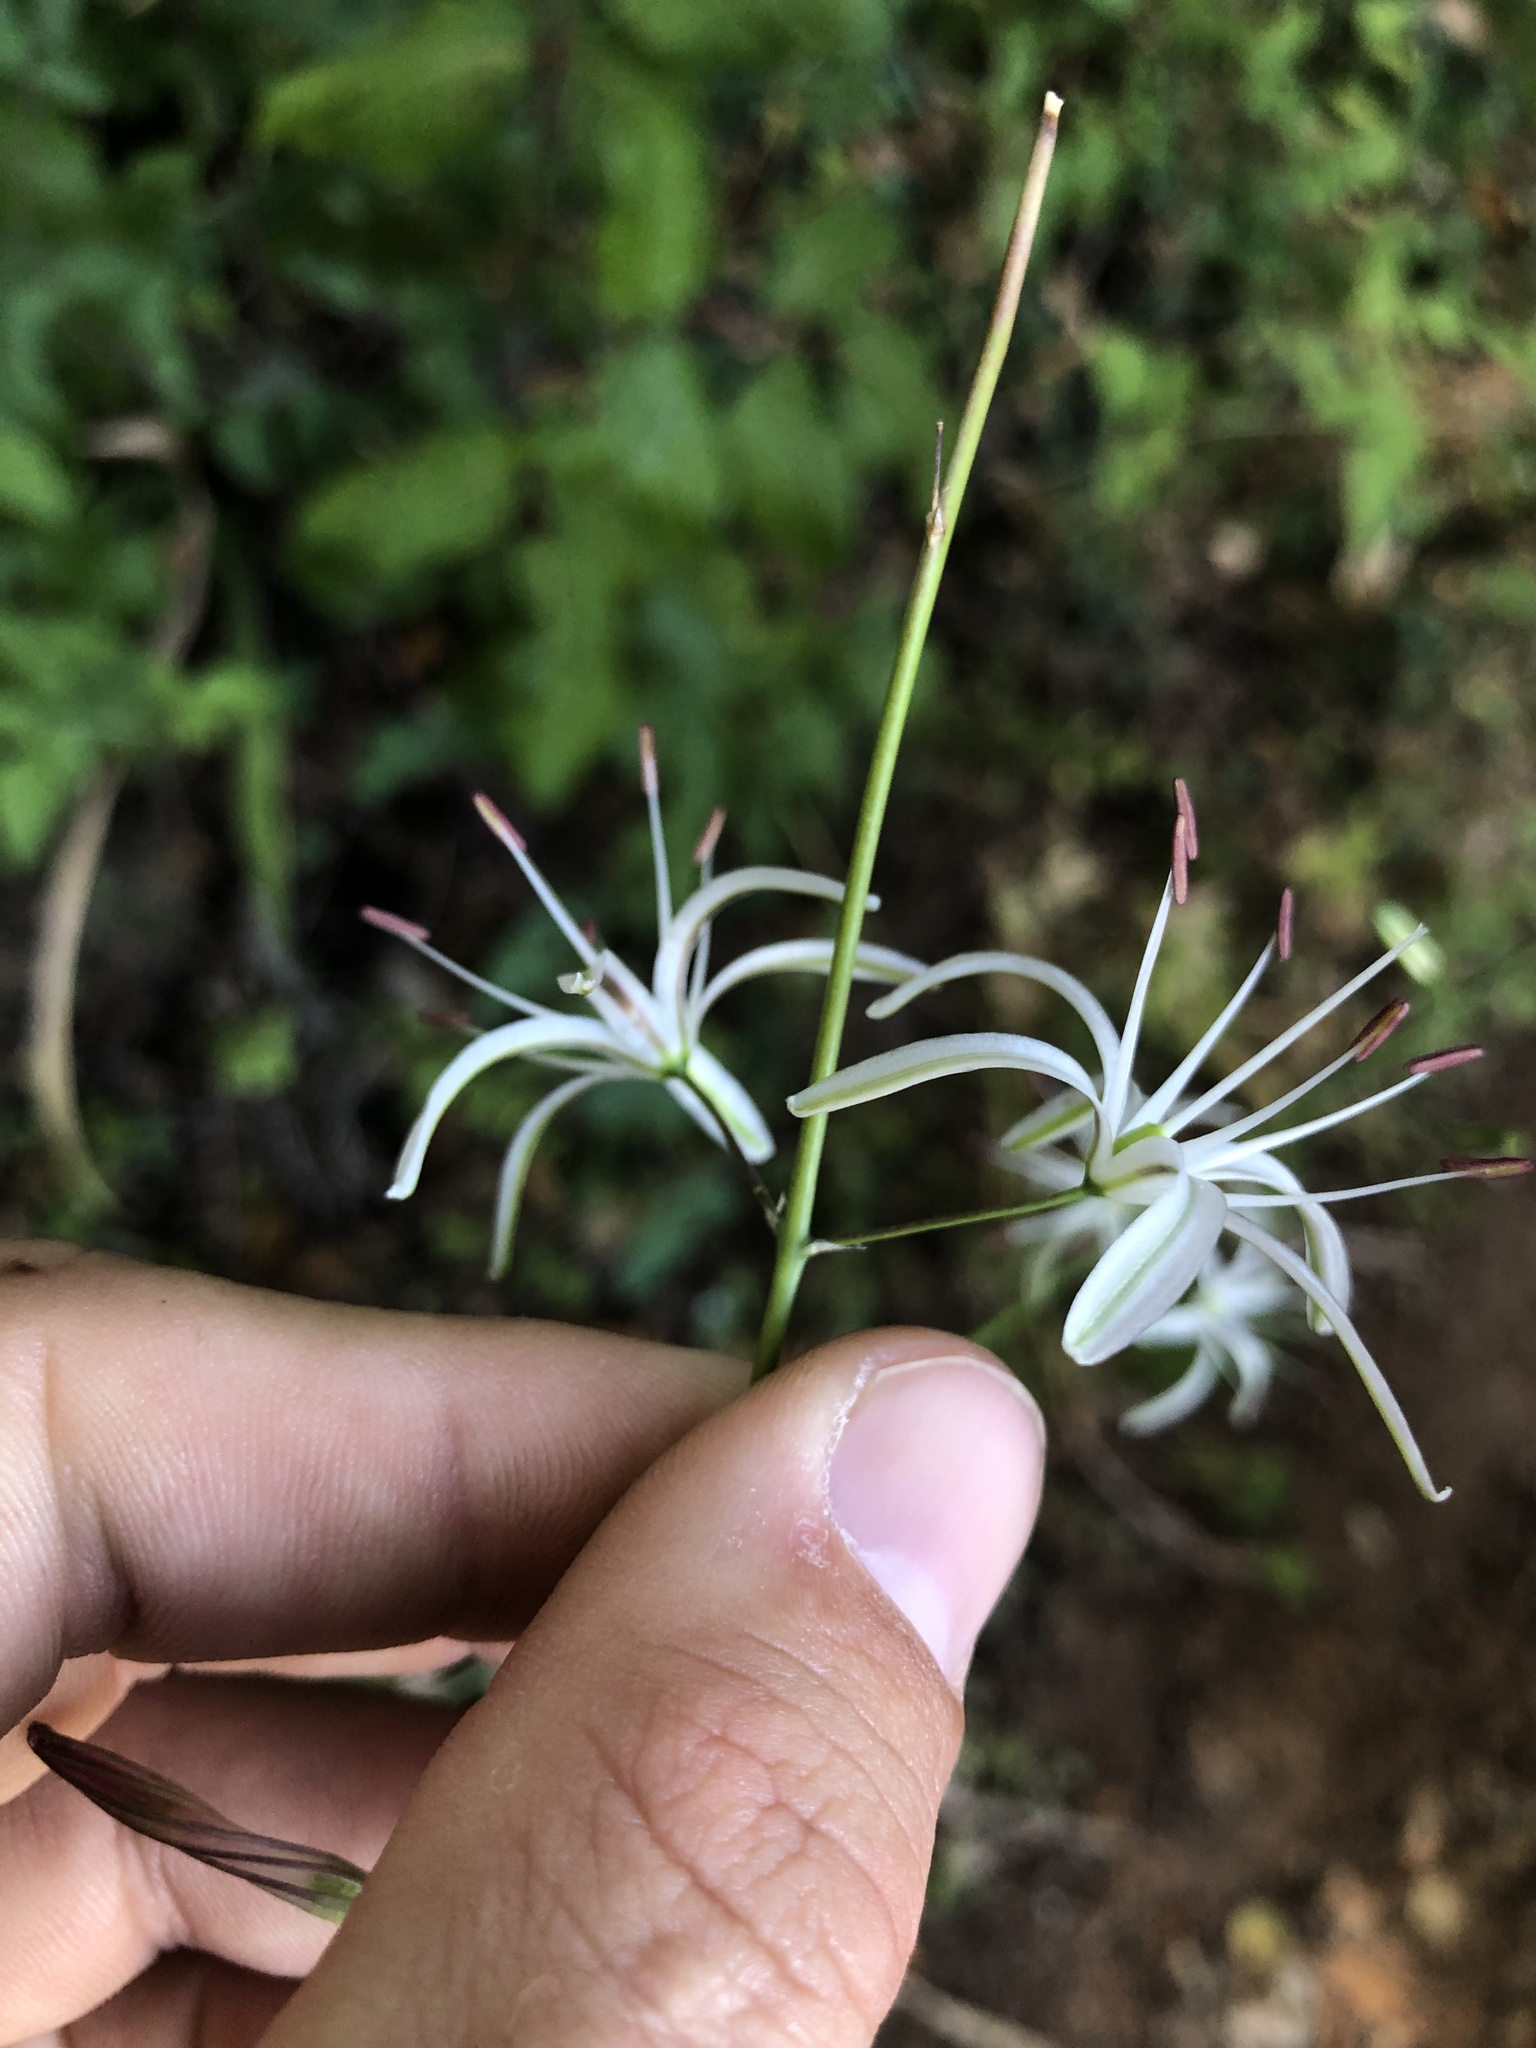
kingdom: Plantae
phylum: Tracheophyta
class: Liliopsida
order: Asparagales
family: Asparagaceae
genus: Chlorogalum
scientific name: Chlorogalum pomeridianum
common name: Amole
